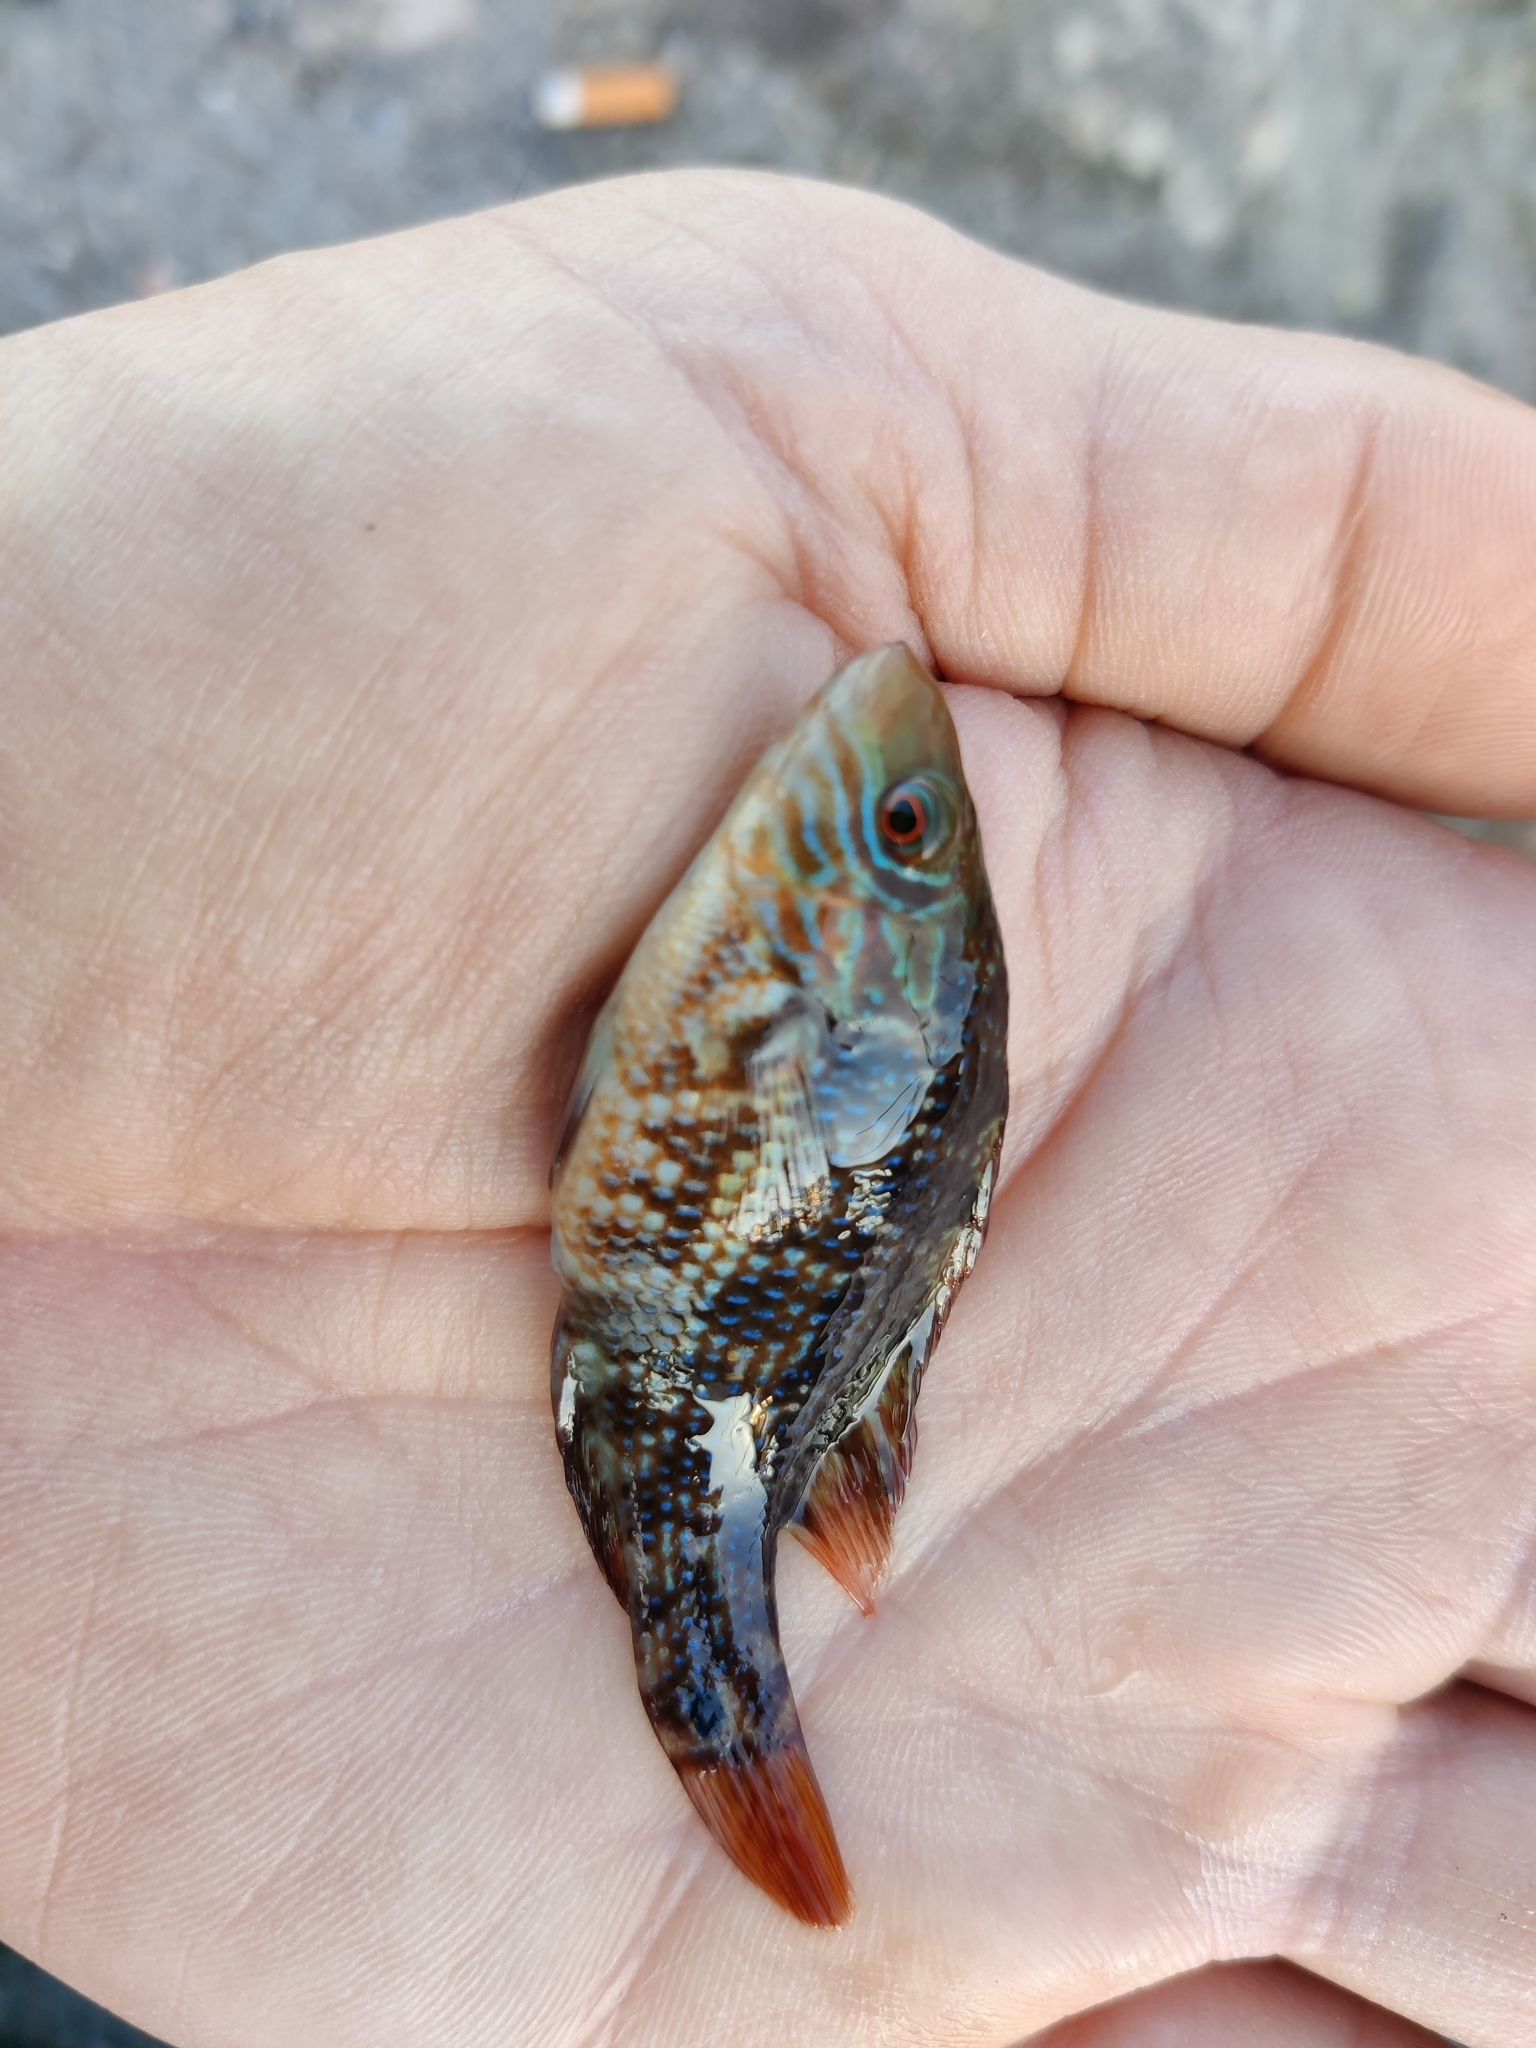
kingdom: Animalia
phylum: Chordata
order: Perciformes
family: Labridae
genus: Symphodus
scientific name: Symphodus melops
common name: Corkwing
